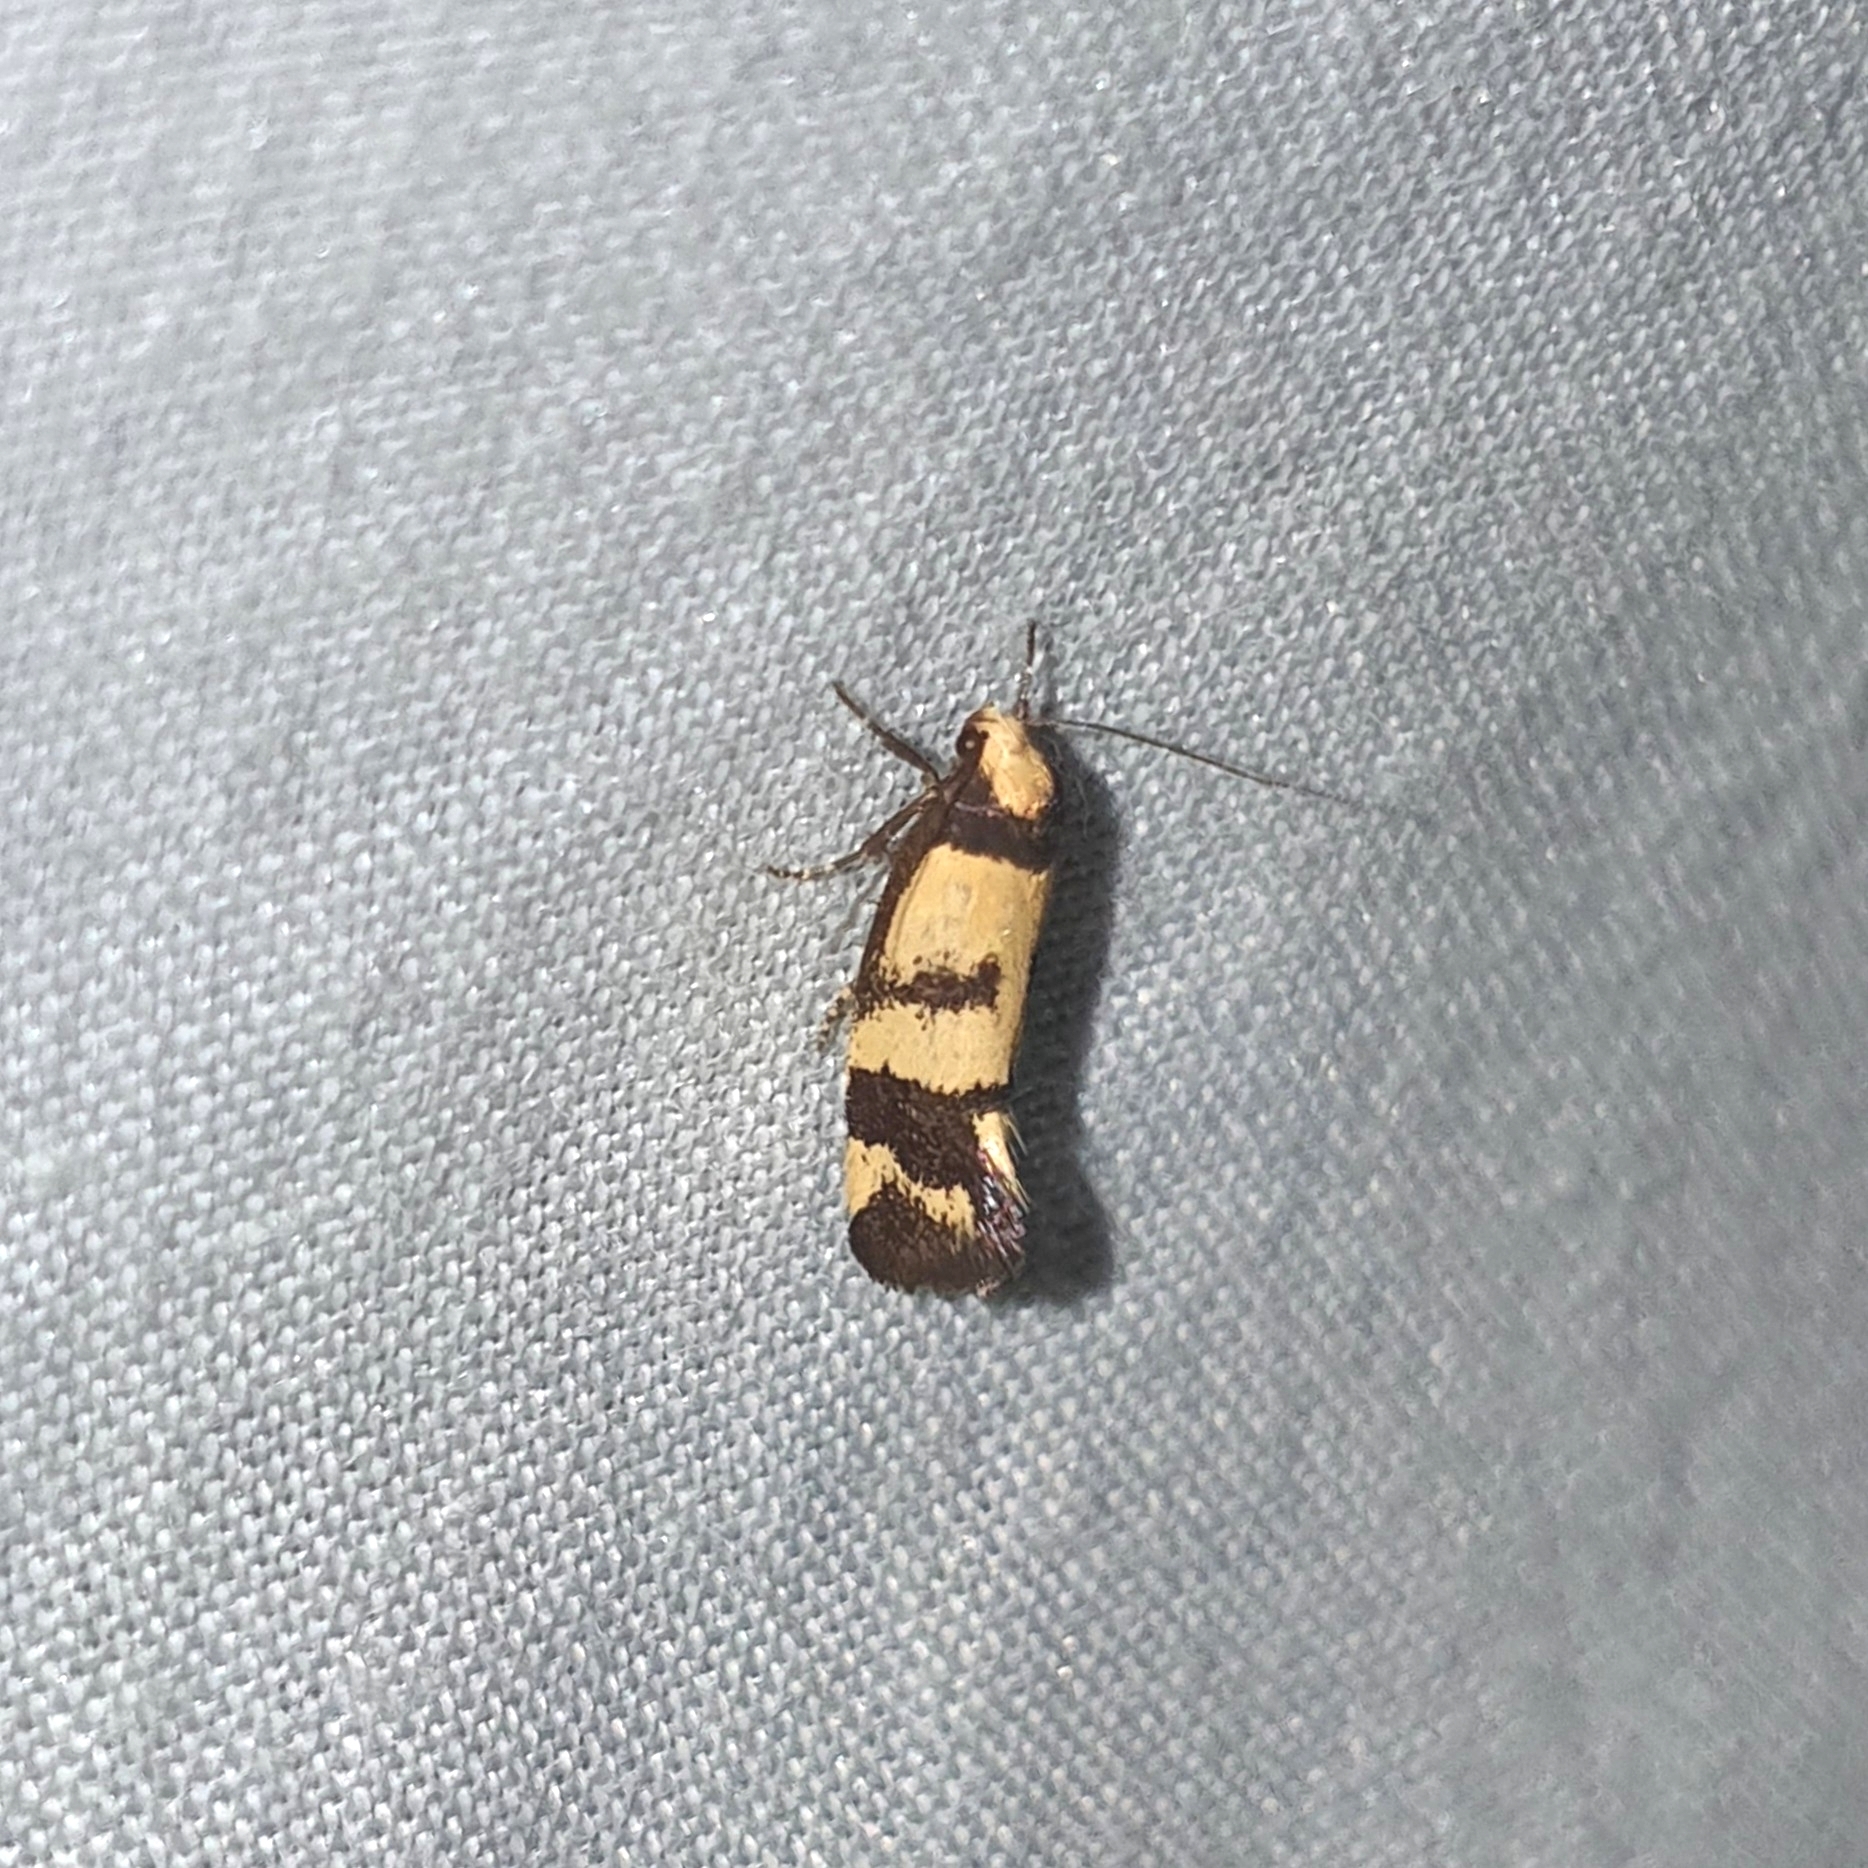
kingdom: Animalia
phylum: Arthropoda
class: Insecta
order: Lepidoptera
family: Oecophoridae
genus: Olbonoma
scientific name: Olbonoma triptycha
